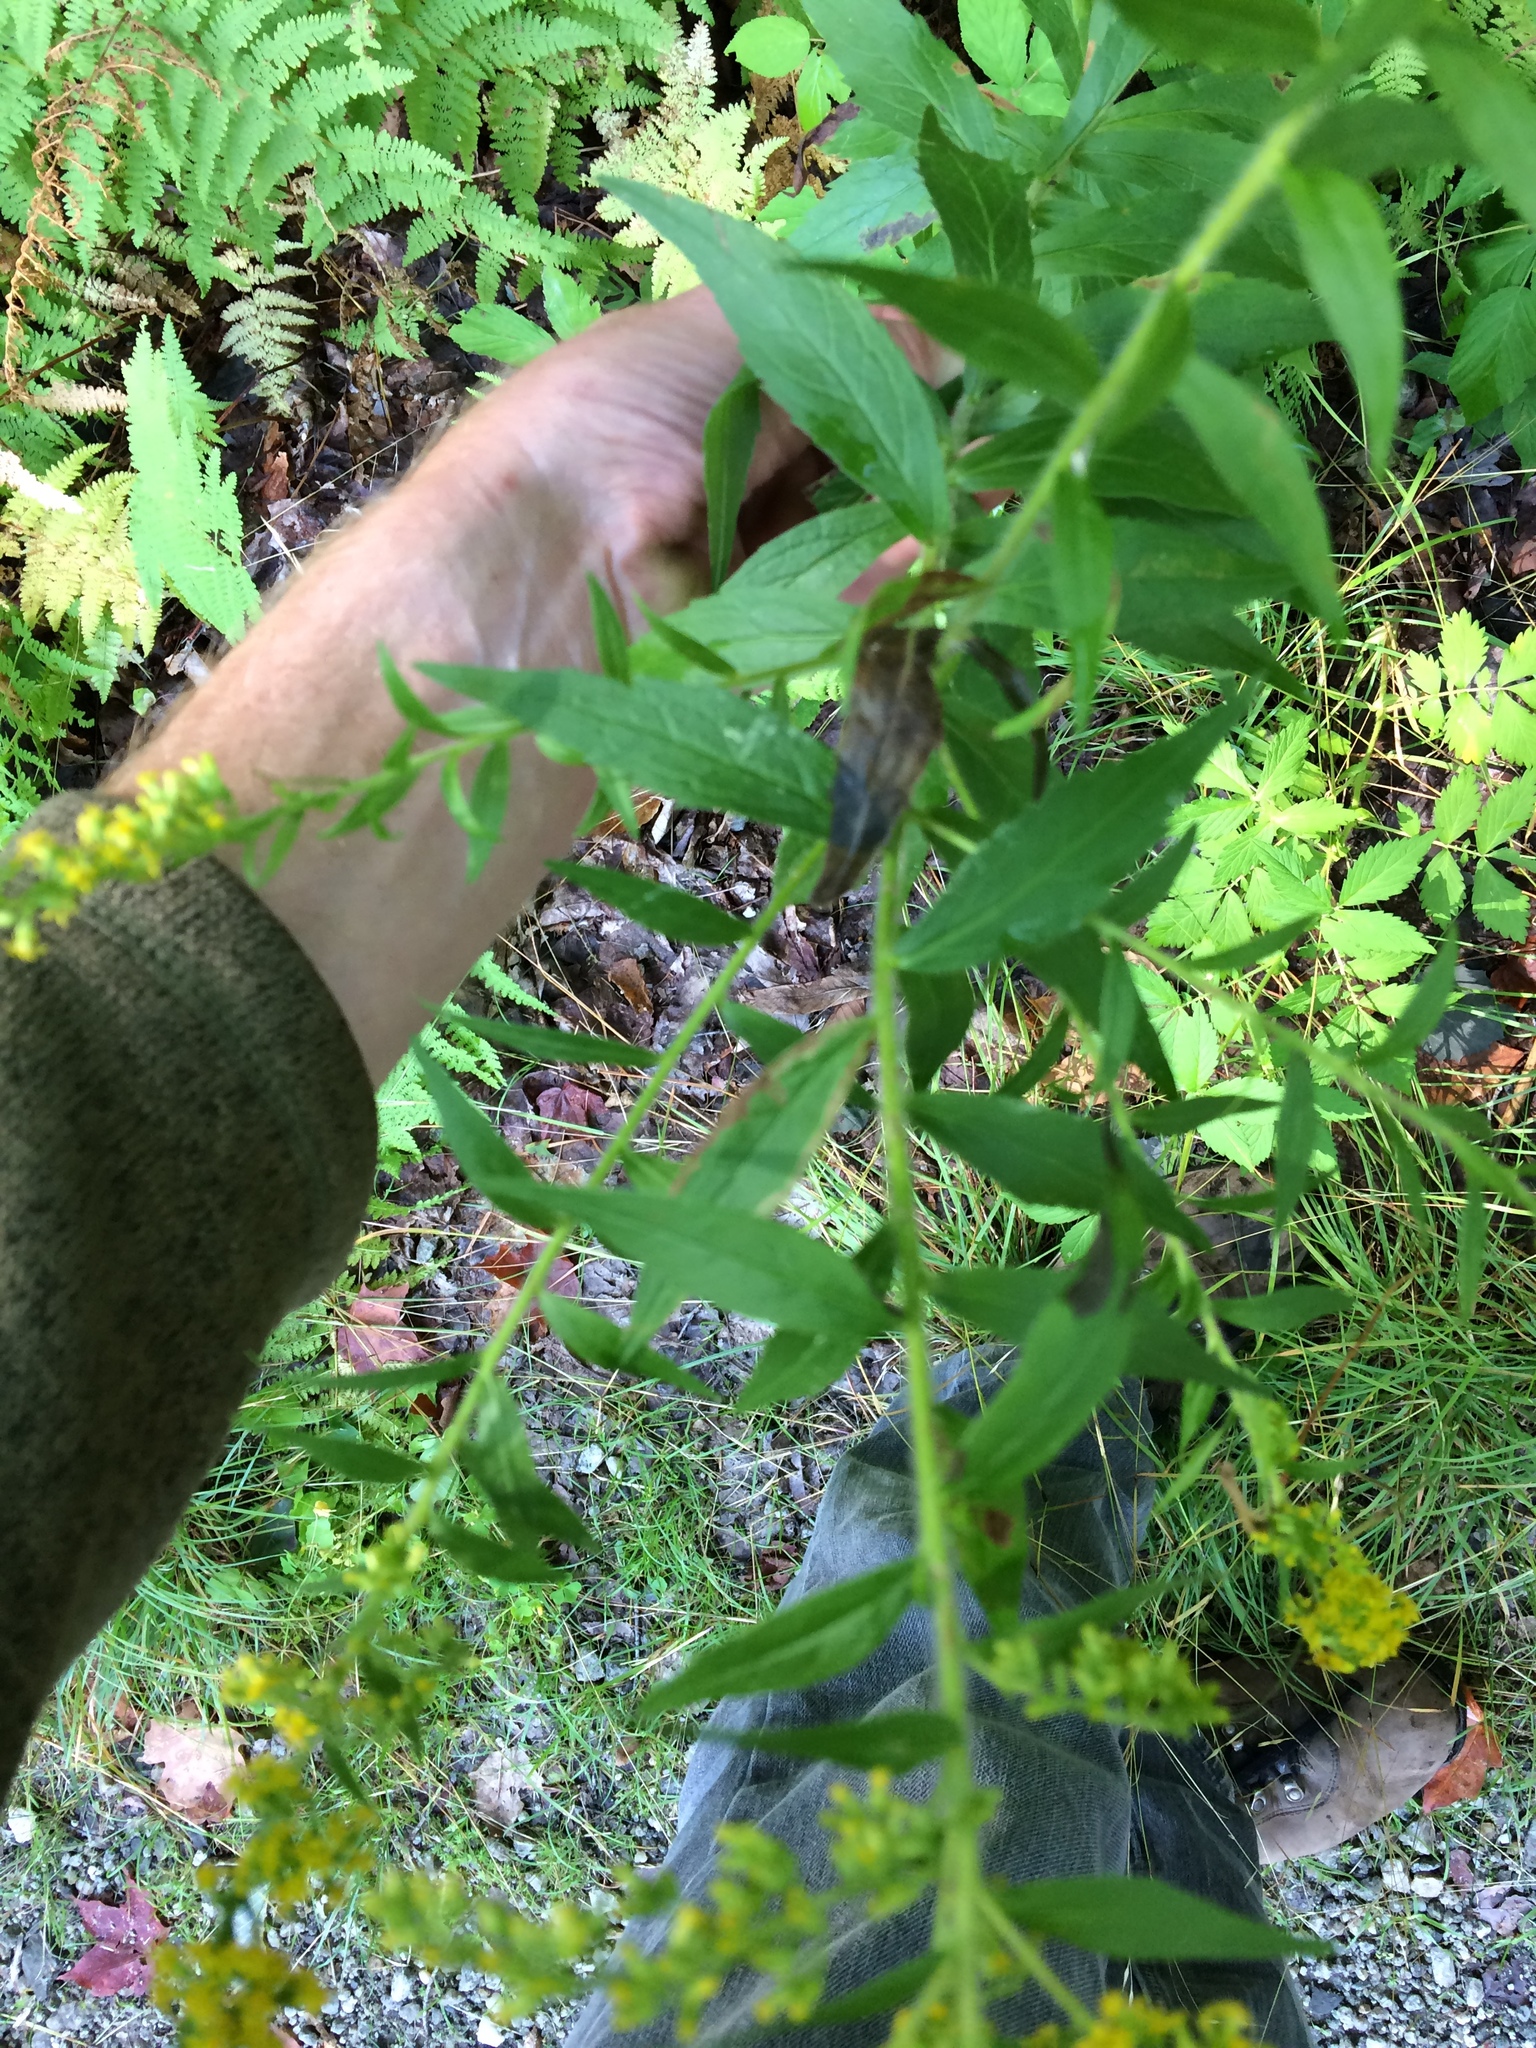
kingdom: Plantae
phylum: Tracheophyta
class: Magnoliopsida
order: Asterales
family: Asteraceae
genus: Solidago
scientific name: Solidago rugosa
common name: Rough-stemmed goldenrod
